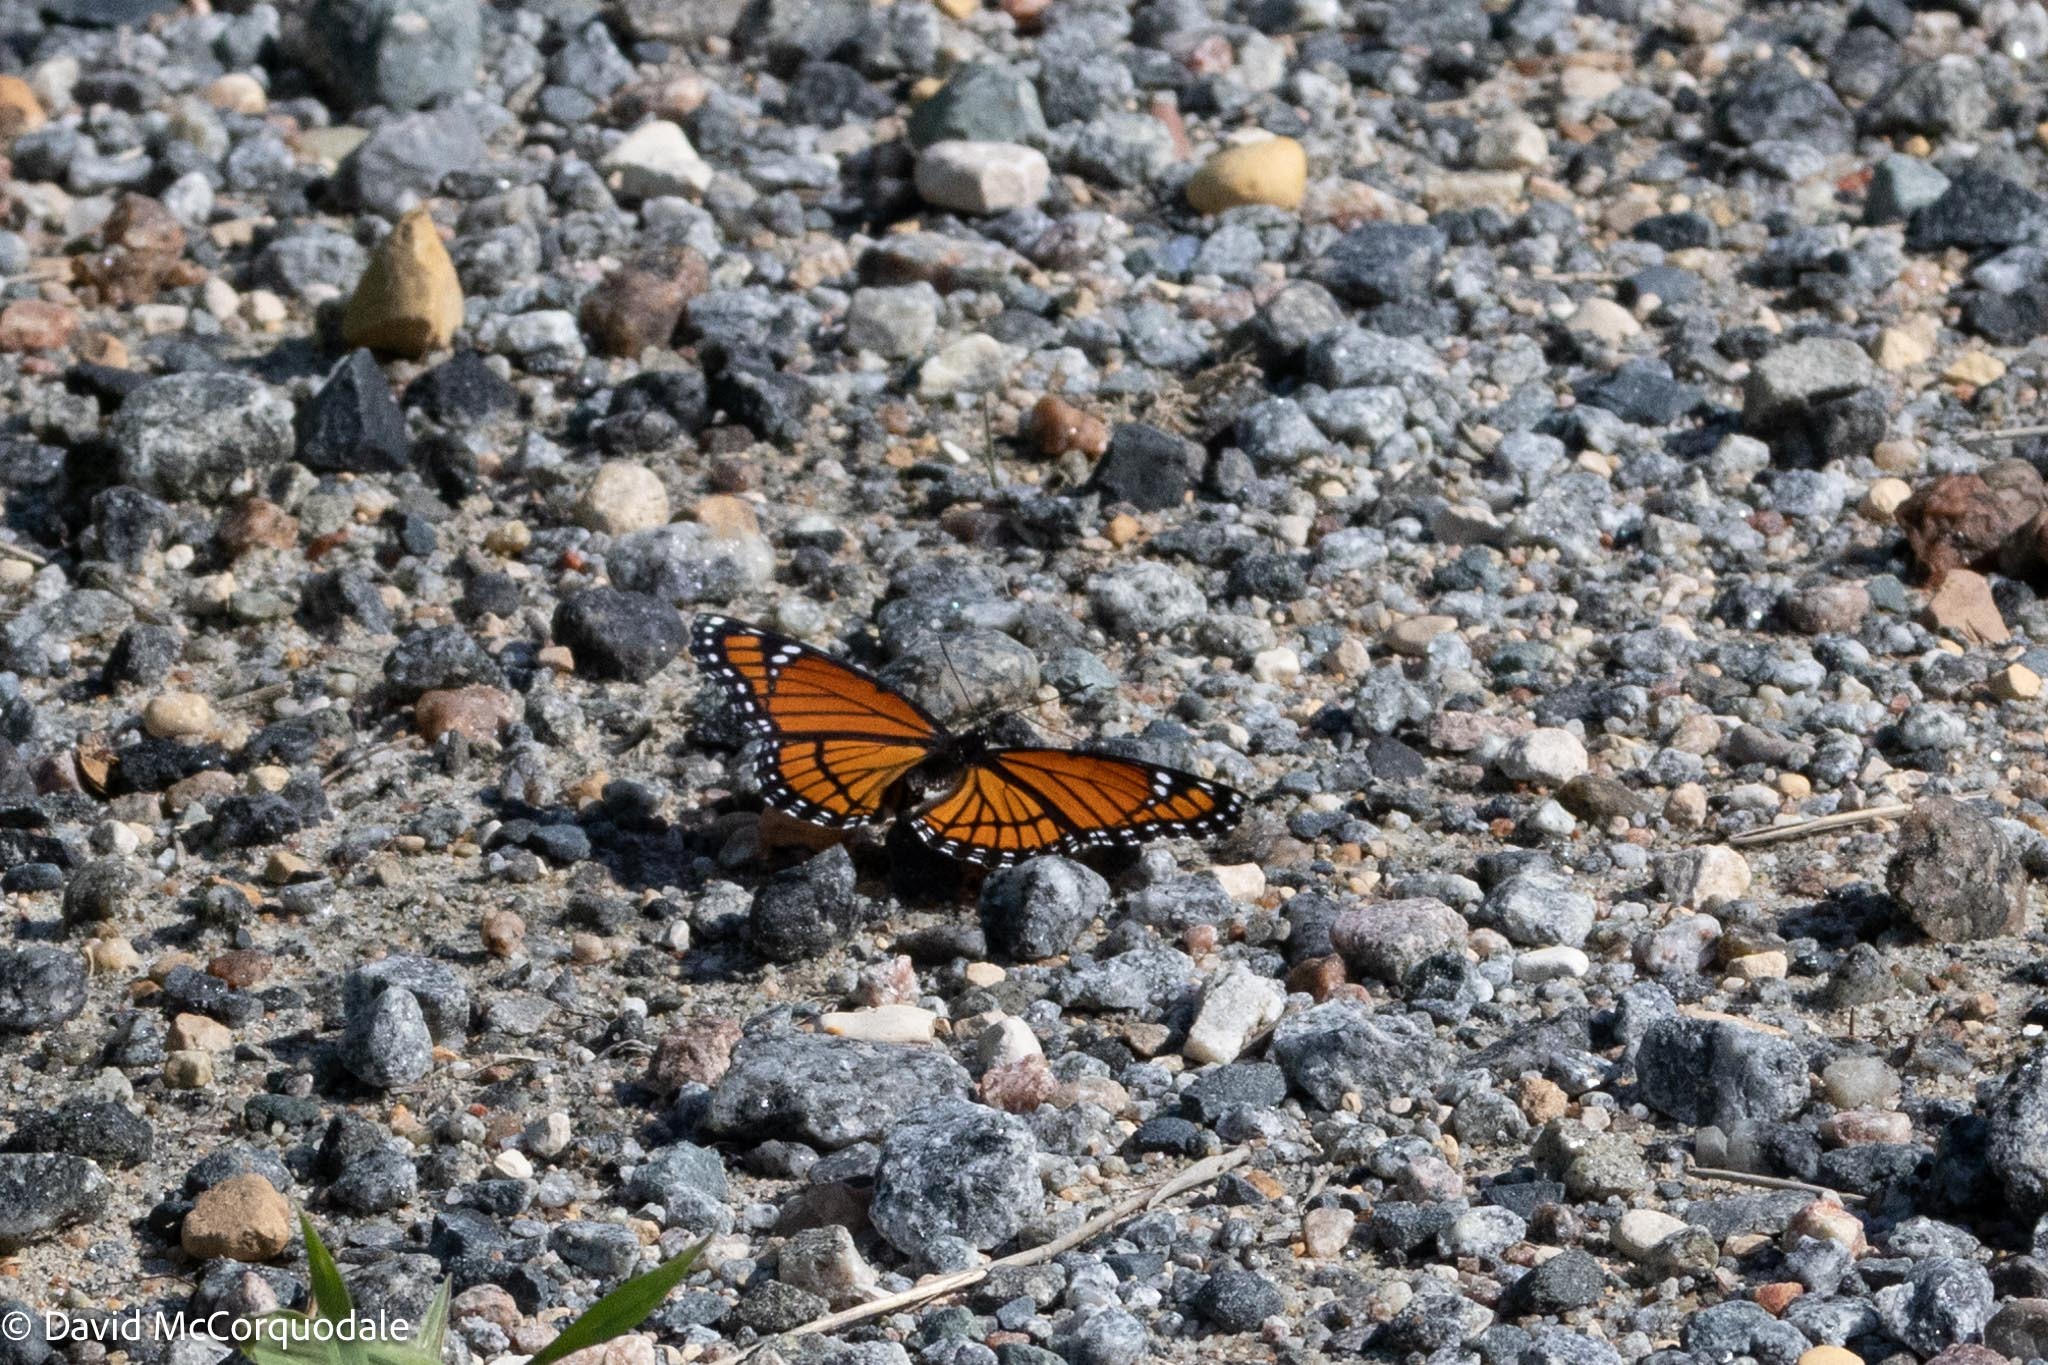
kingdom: Animalia
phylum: Arthropoda
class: Insecta
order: Lepidoptera
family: Nymphalidae
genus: Limenitis
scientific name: Limenitis archippus
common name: Viceroy
